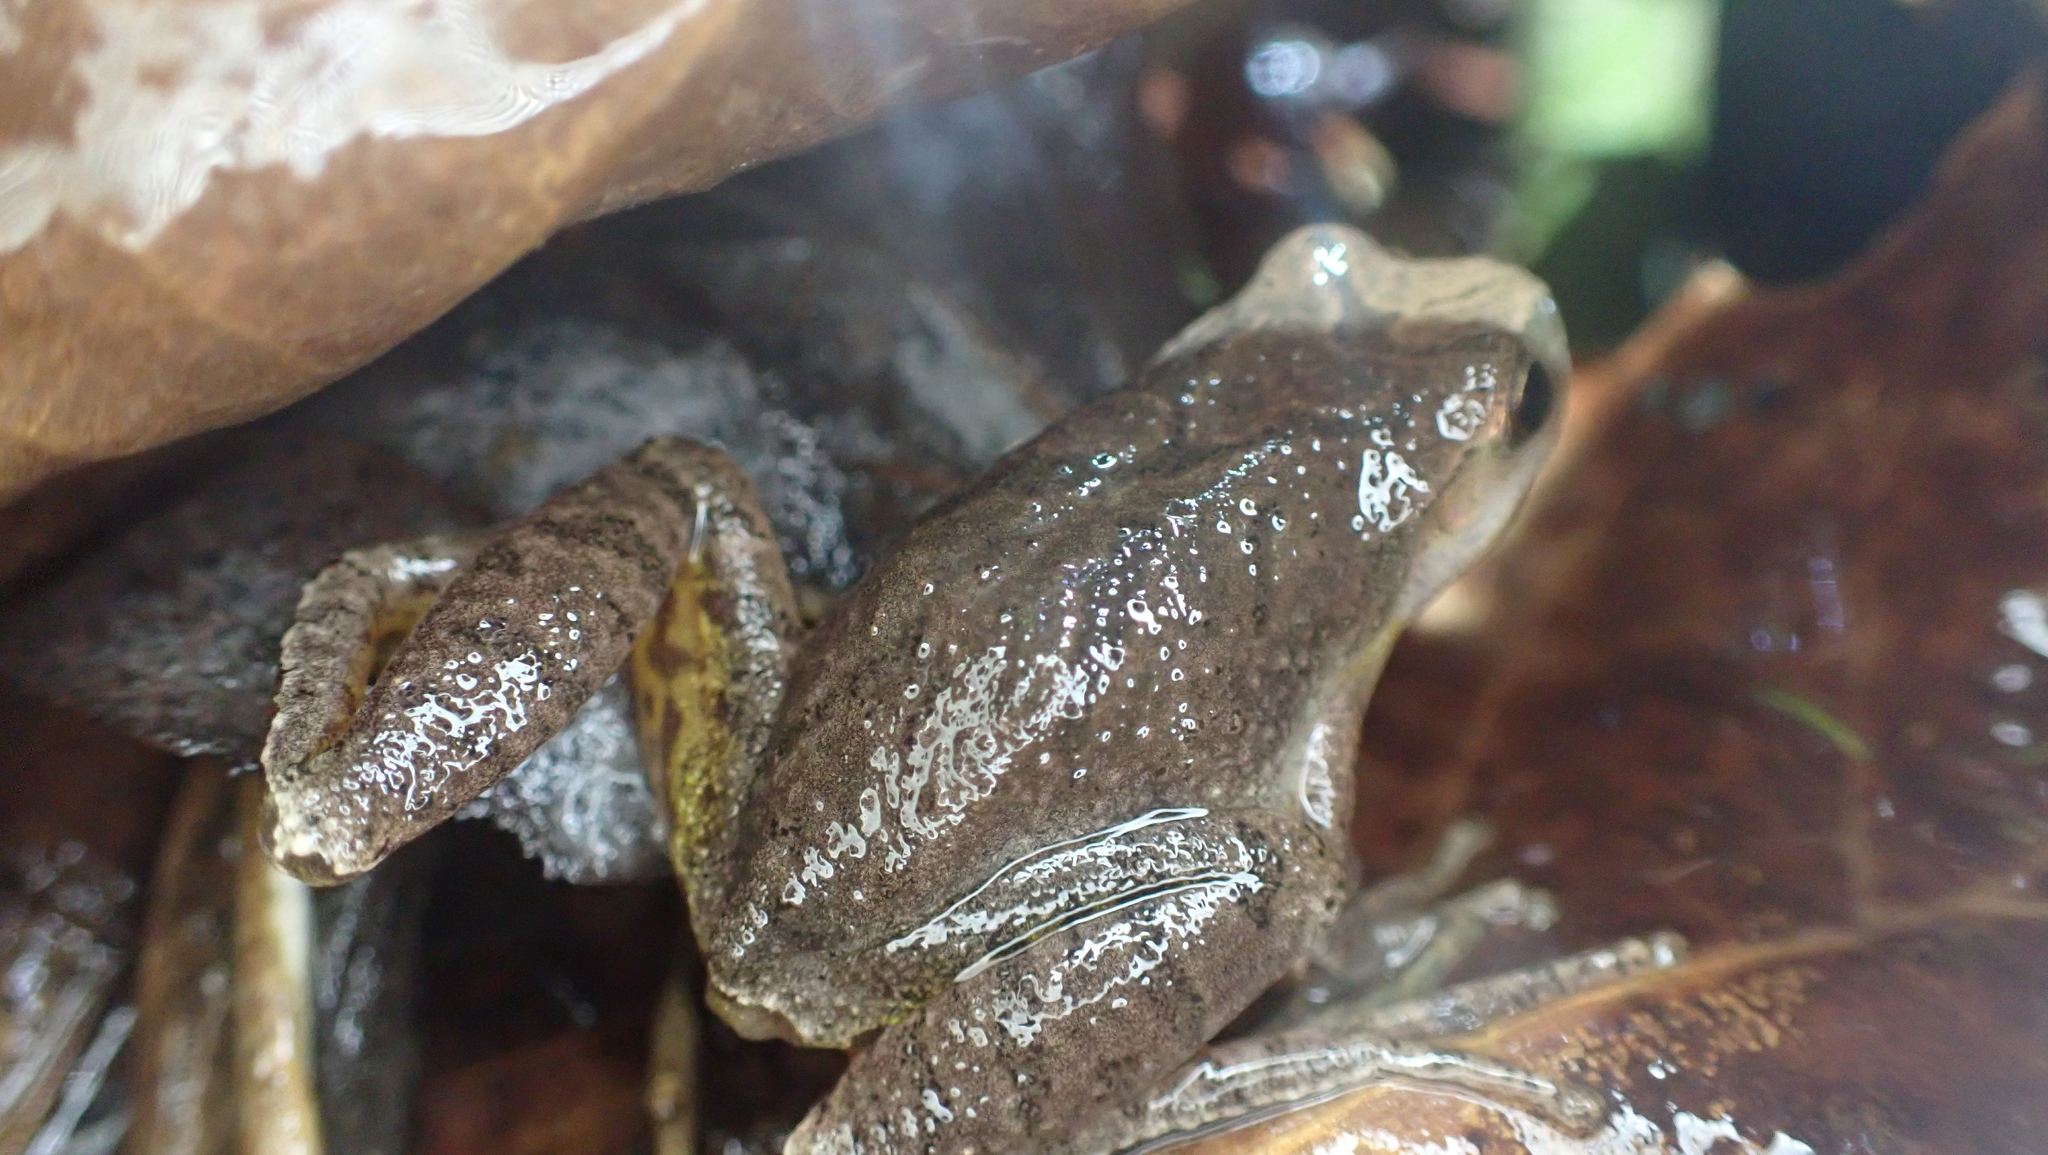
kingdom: Animalia
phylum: Chordata
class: Amphibia
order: Anura
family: Hylidae
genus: Pseudacris
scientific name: Pseudacris crucifer
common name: Spring peeper
